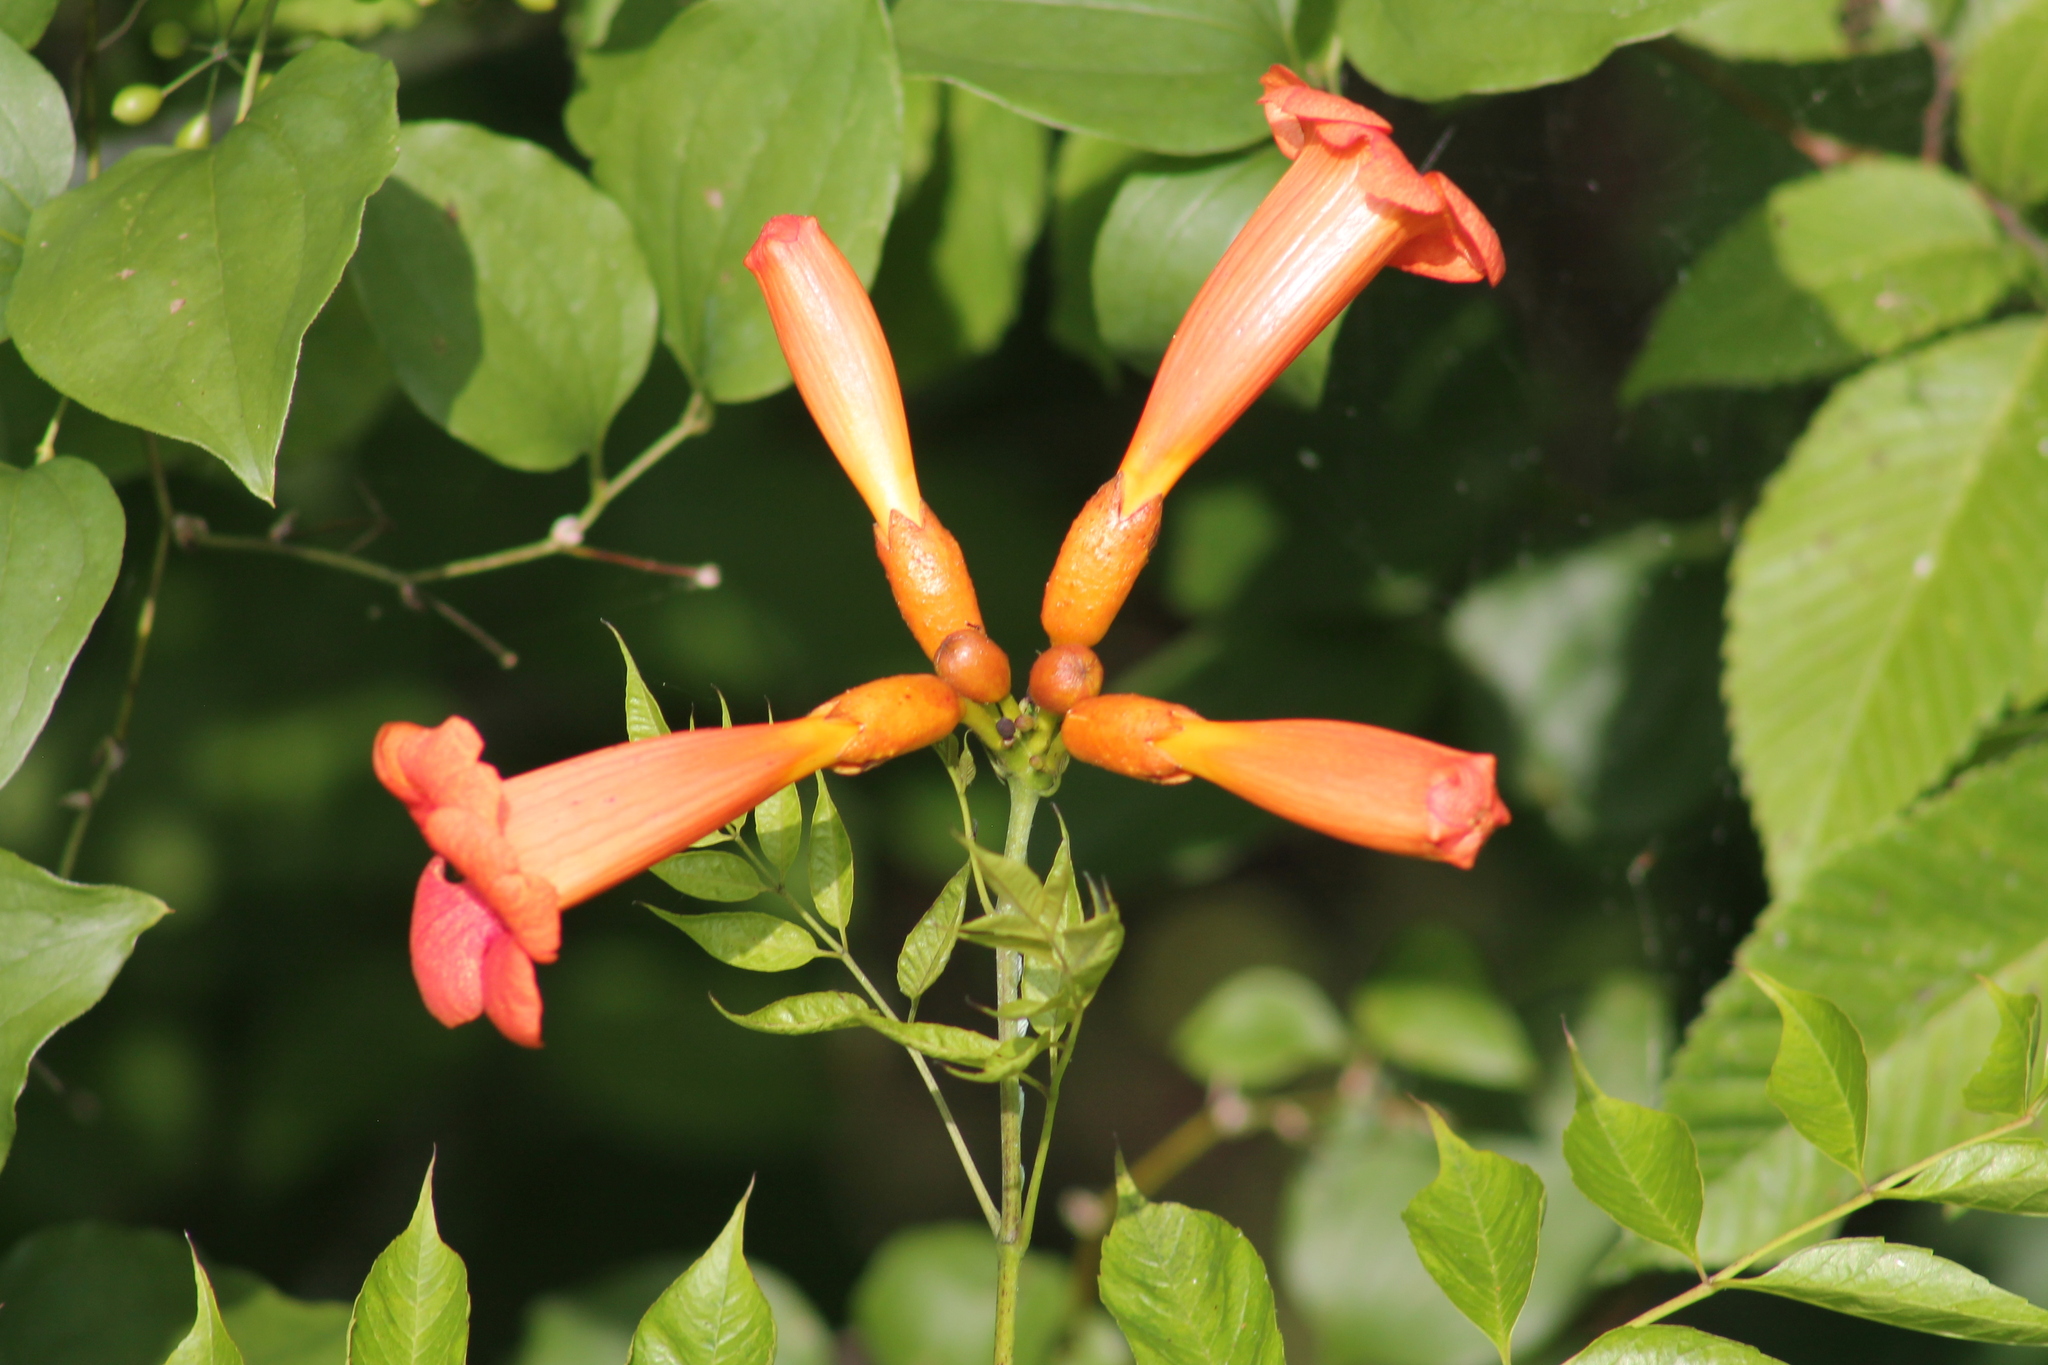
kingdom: Plantae
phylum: Tracheophyta
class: Magnoliopsida
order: Lamiales
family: Bignoniaceae
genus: Campsis
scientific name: Campsis radicans
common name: Trumpet-creeper
